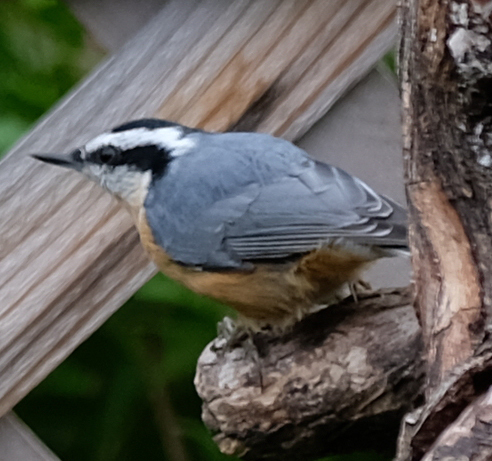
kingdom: Animalia
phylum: Chordata
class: Aves
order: Passeriformes
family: Sittidae
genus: Sitta
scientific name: Sitta canadensis
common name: Red-breasted nuthatch
